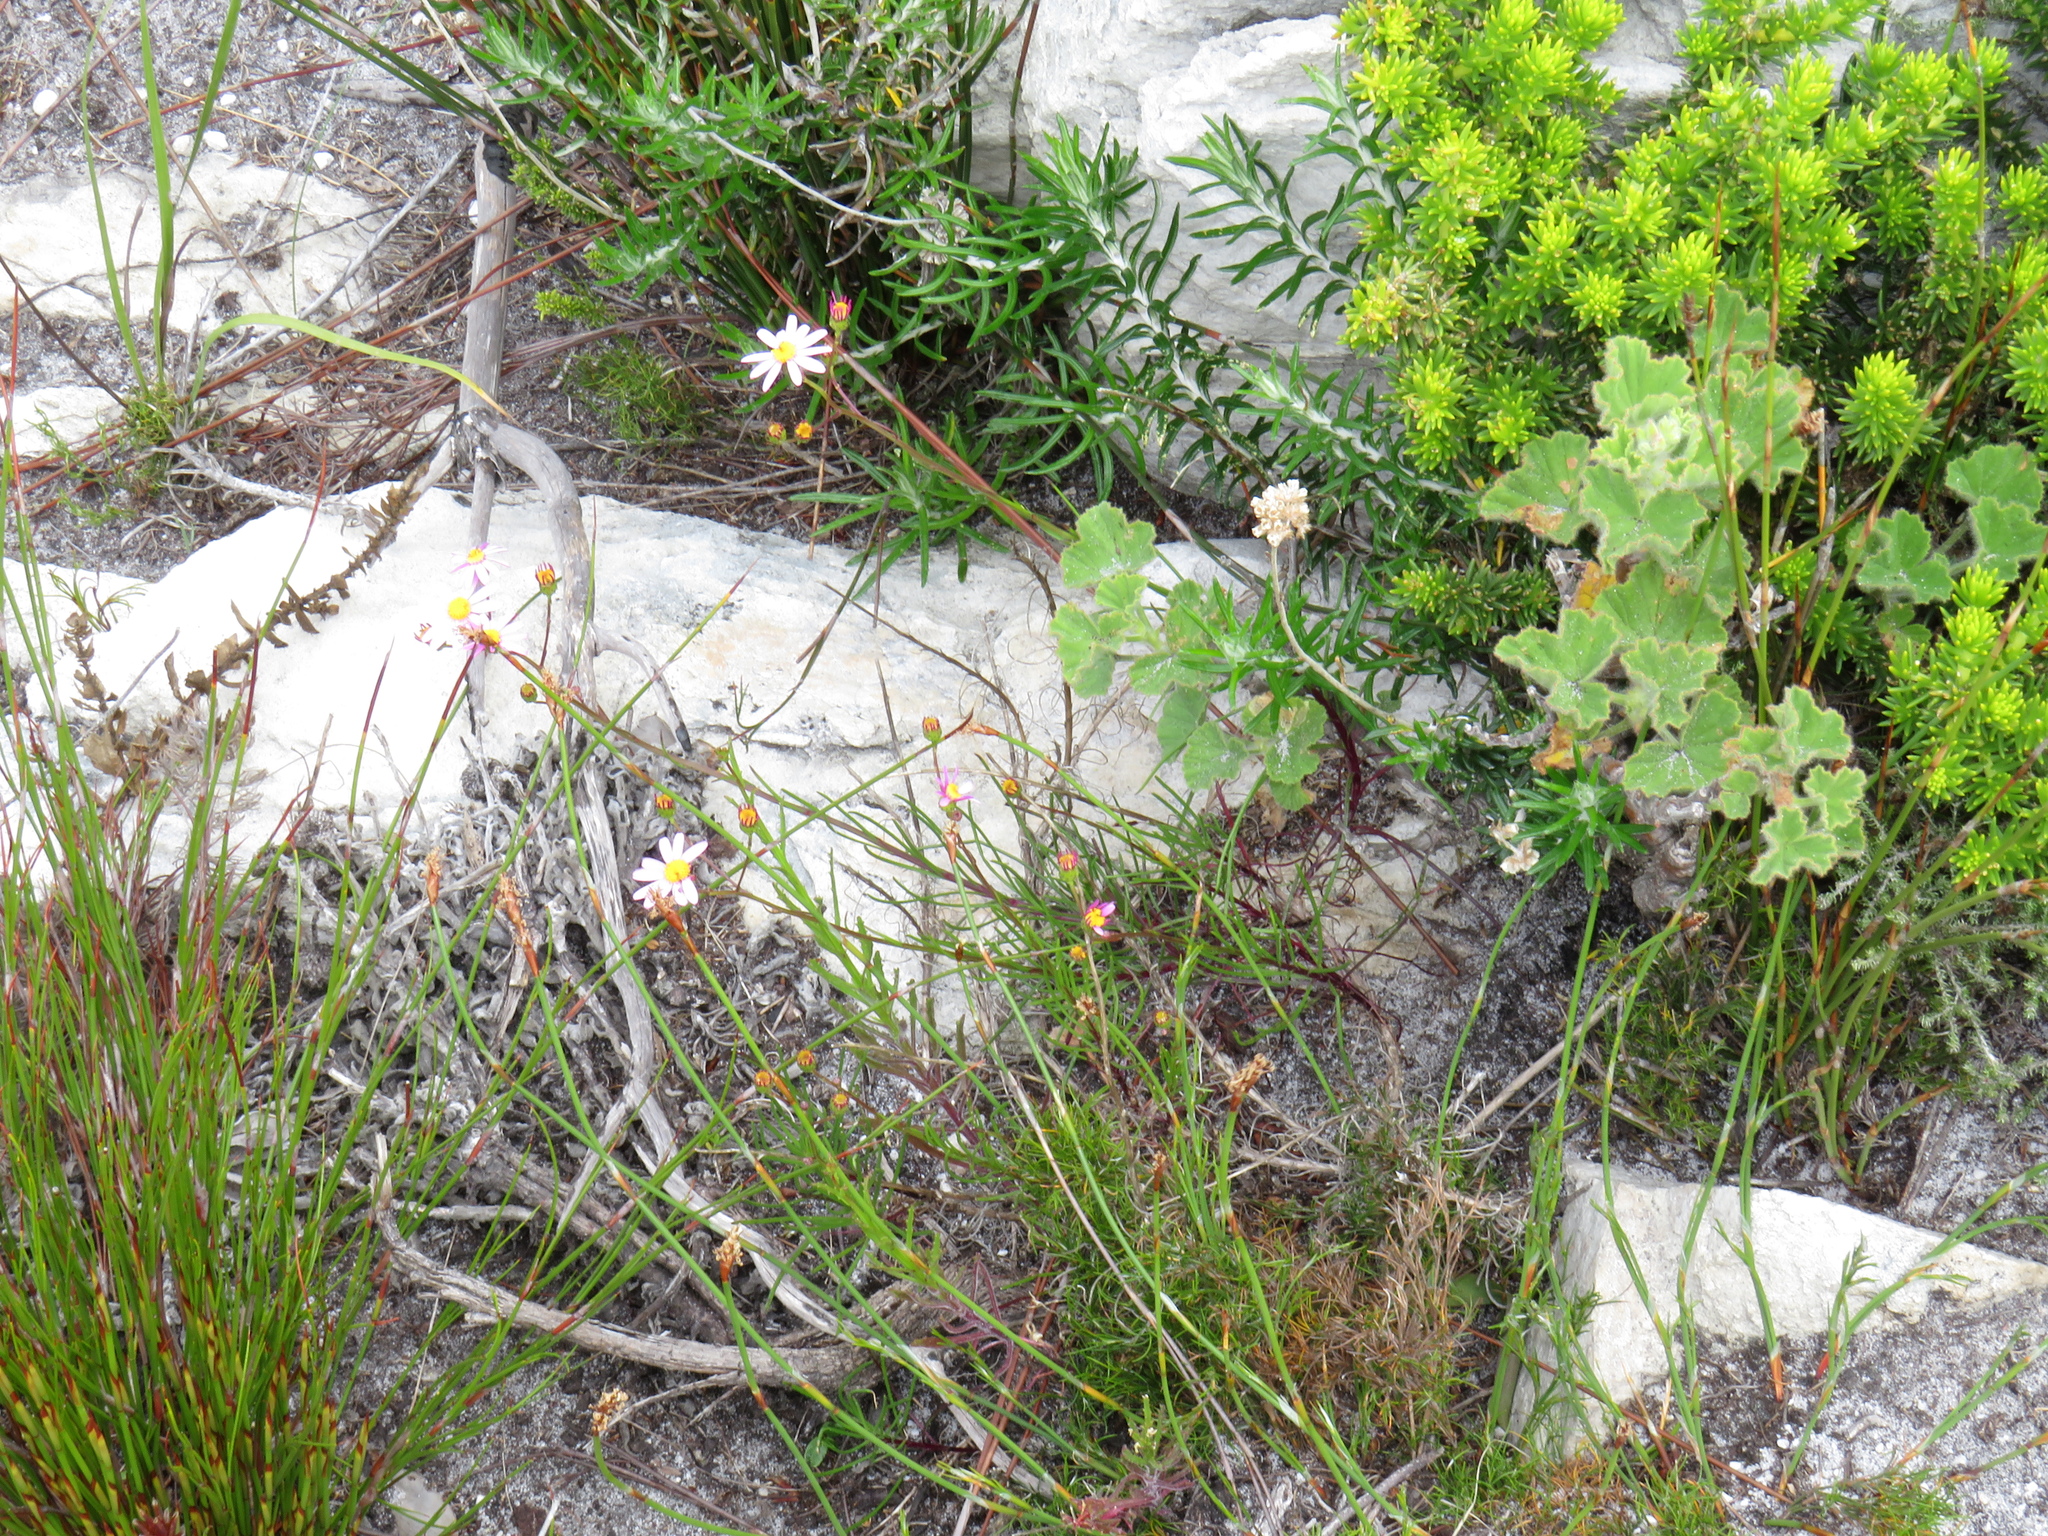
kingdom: Plantae
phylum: Tracheophyta
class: Magnoliopsida
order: Asterales
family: Asteraceae
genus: Senecio
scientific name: Senecio umbellatus
